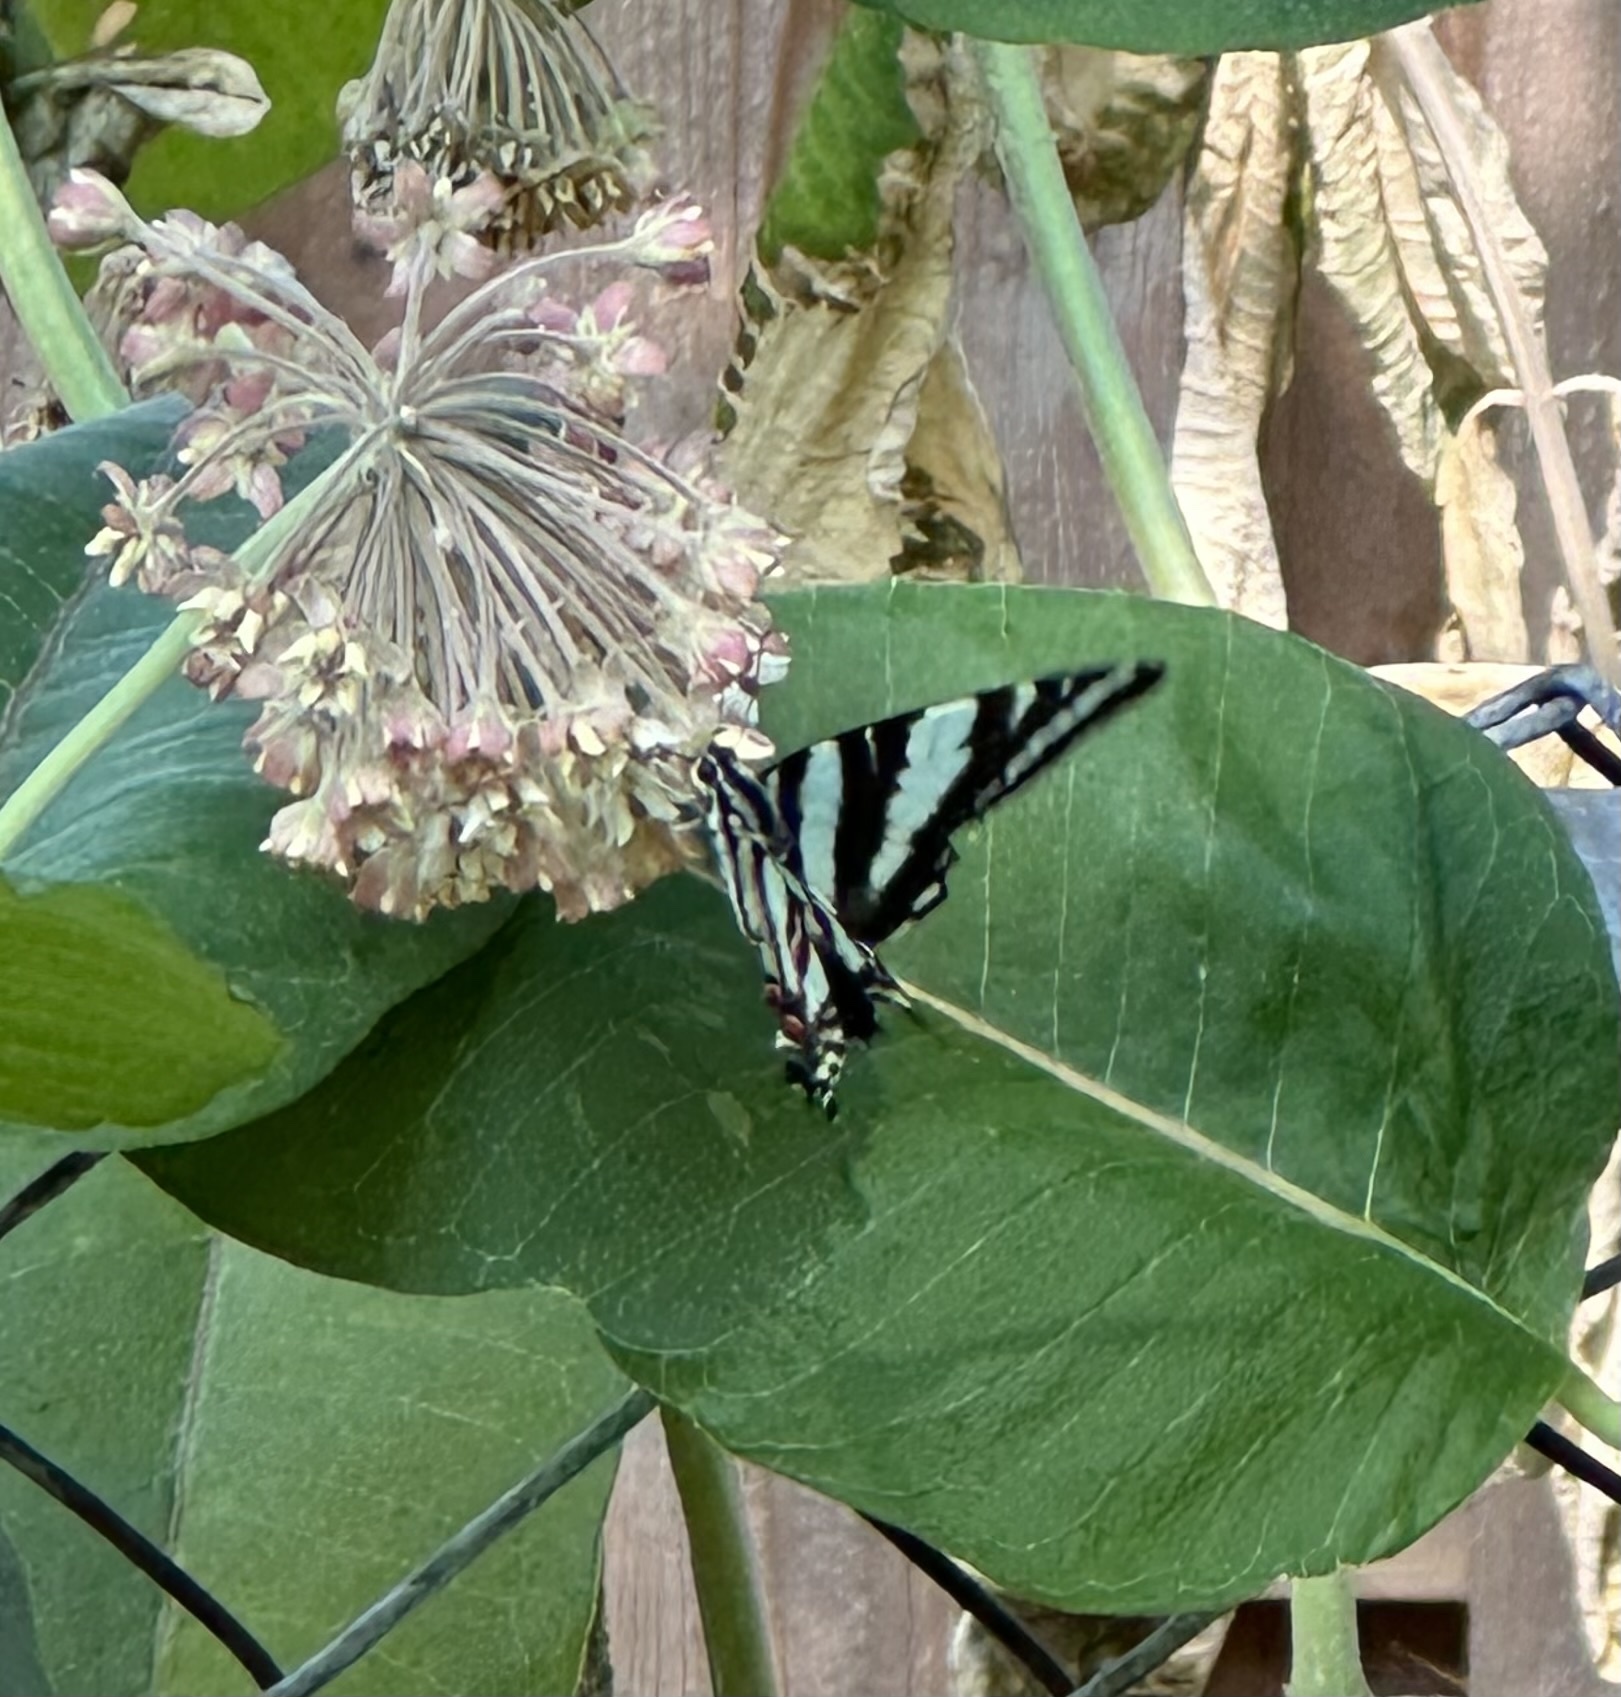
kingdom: Animalia
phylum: Arthropoda
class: Insecta
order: Lepidoptera
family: Papilionidae
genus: Protographium
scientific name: Protographium marcellus
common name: Zebra swallowtail
